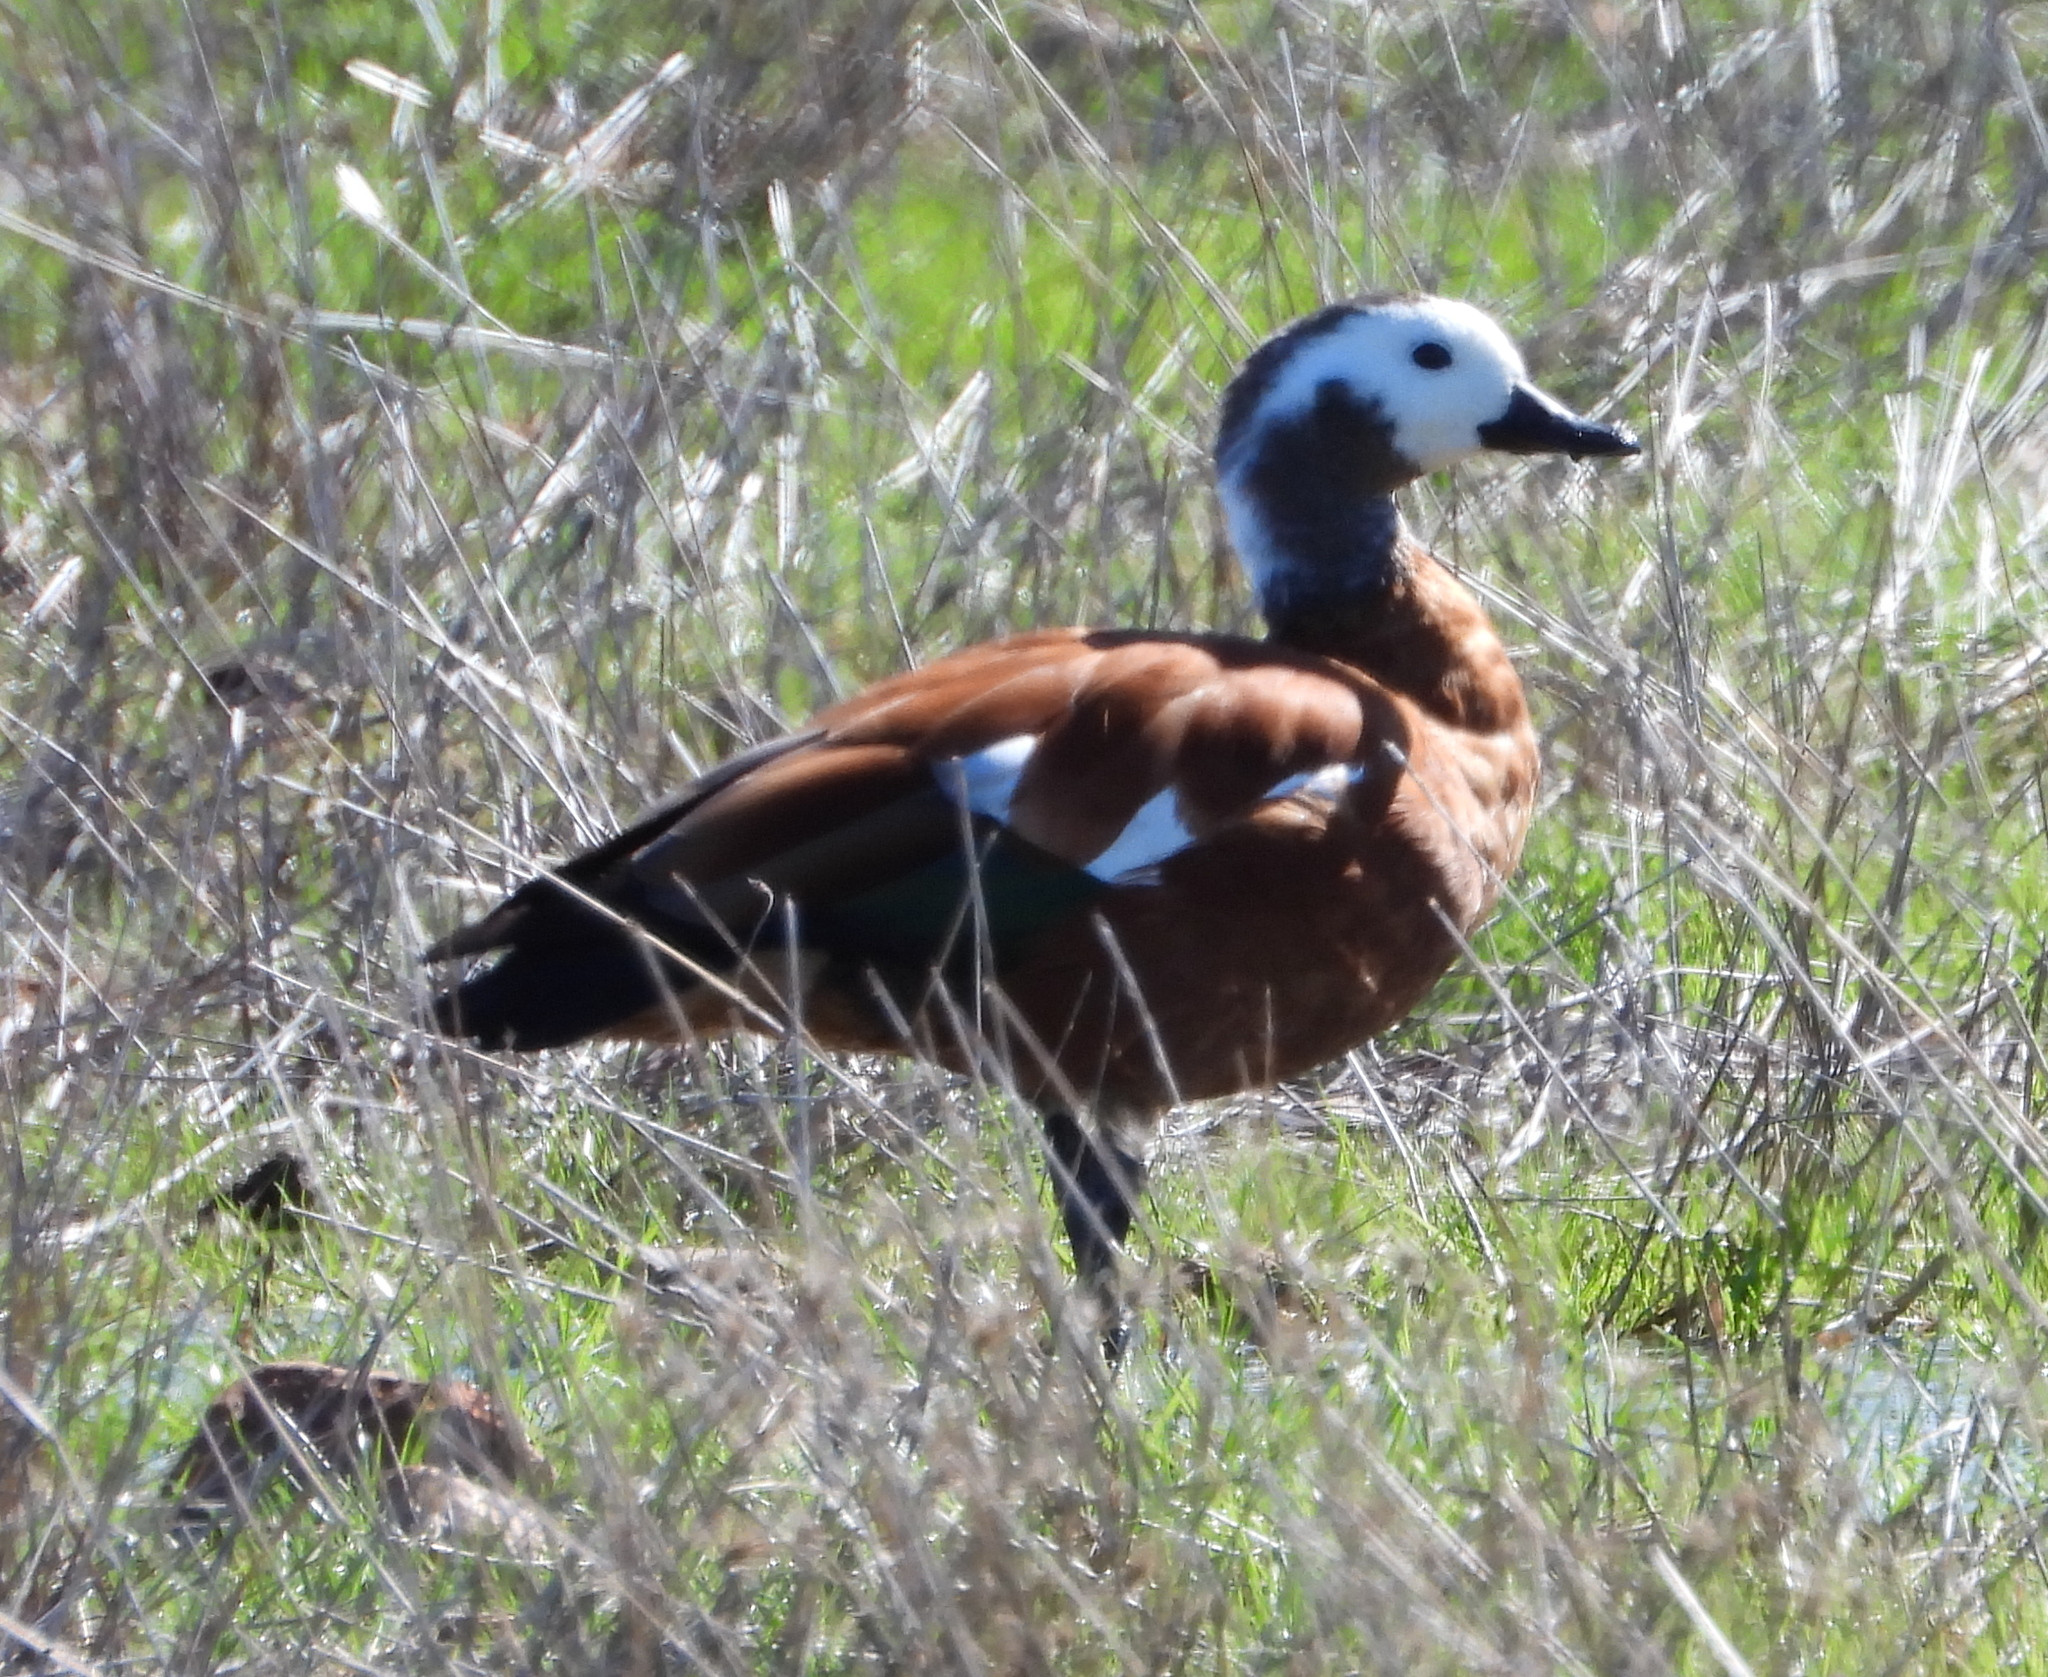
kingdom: Animalia
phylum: Chordata
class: Aves
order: Anseriformes
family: Anatidae
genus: Tadorna
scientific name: Tadorna cana
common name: South african shelduck
